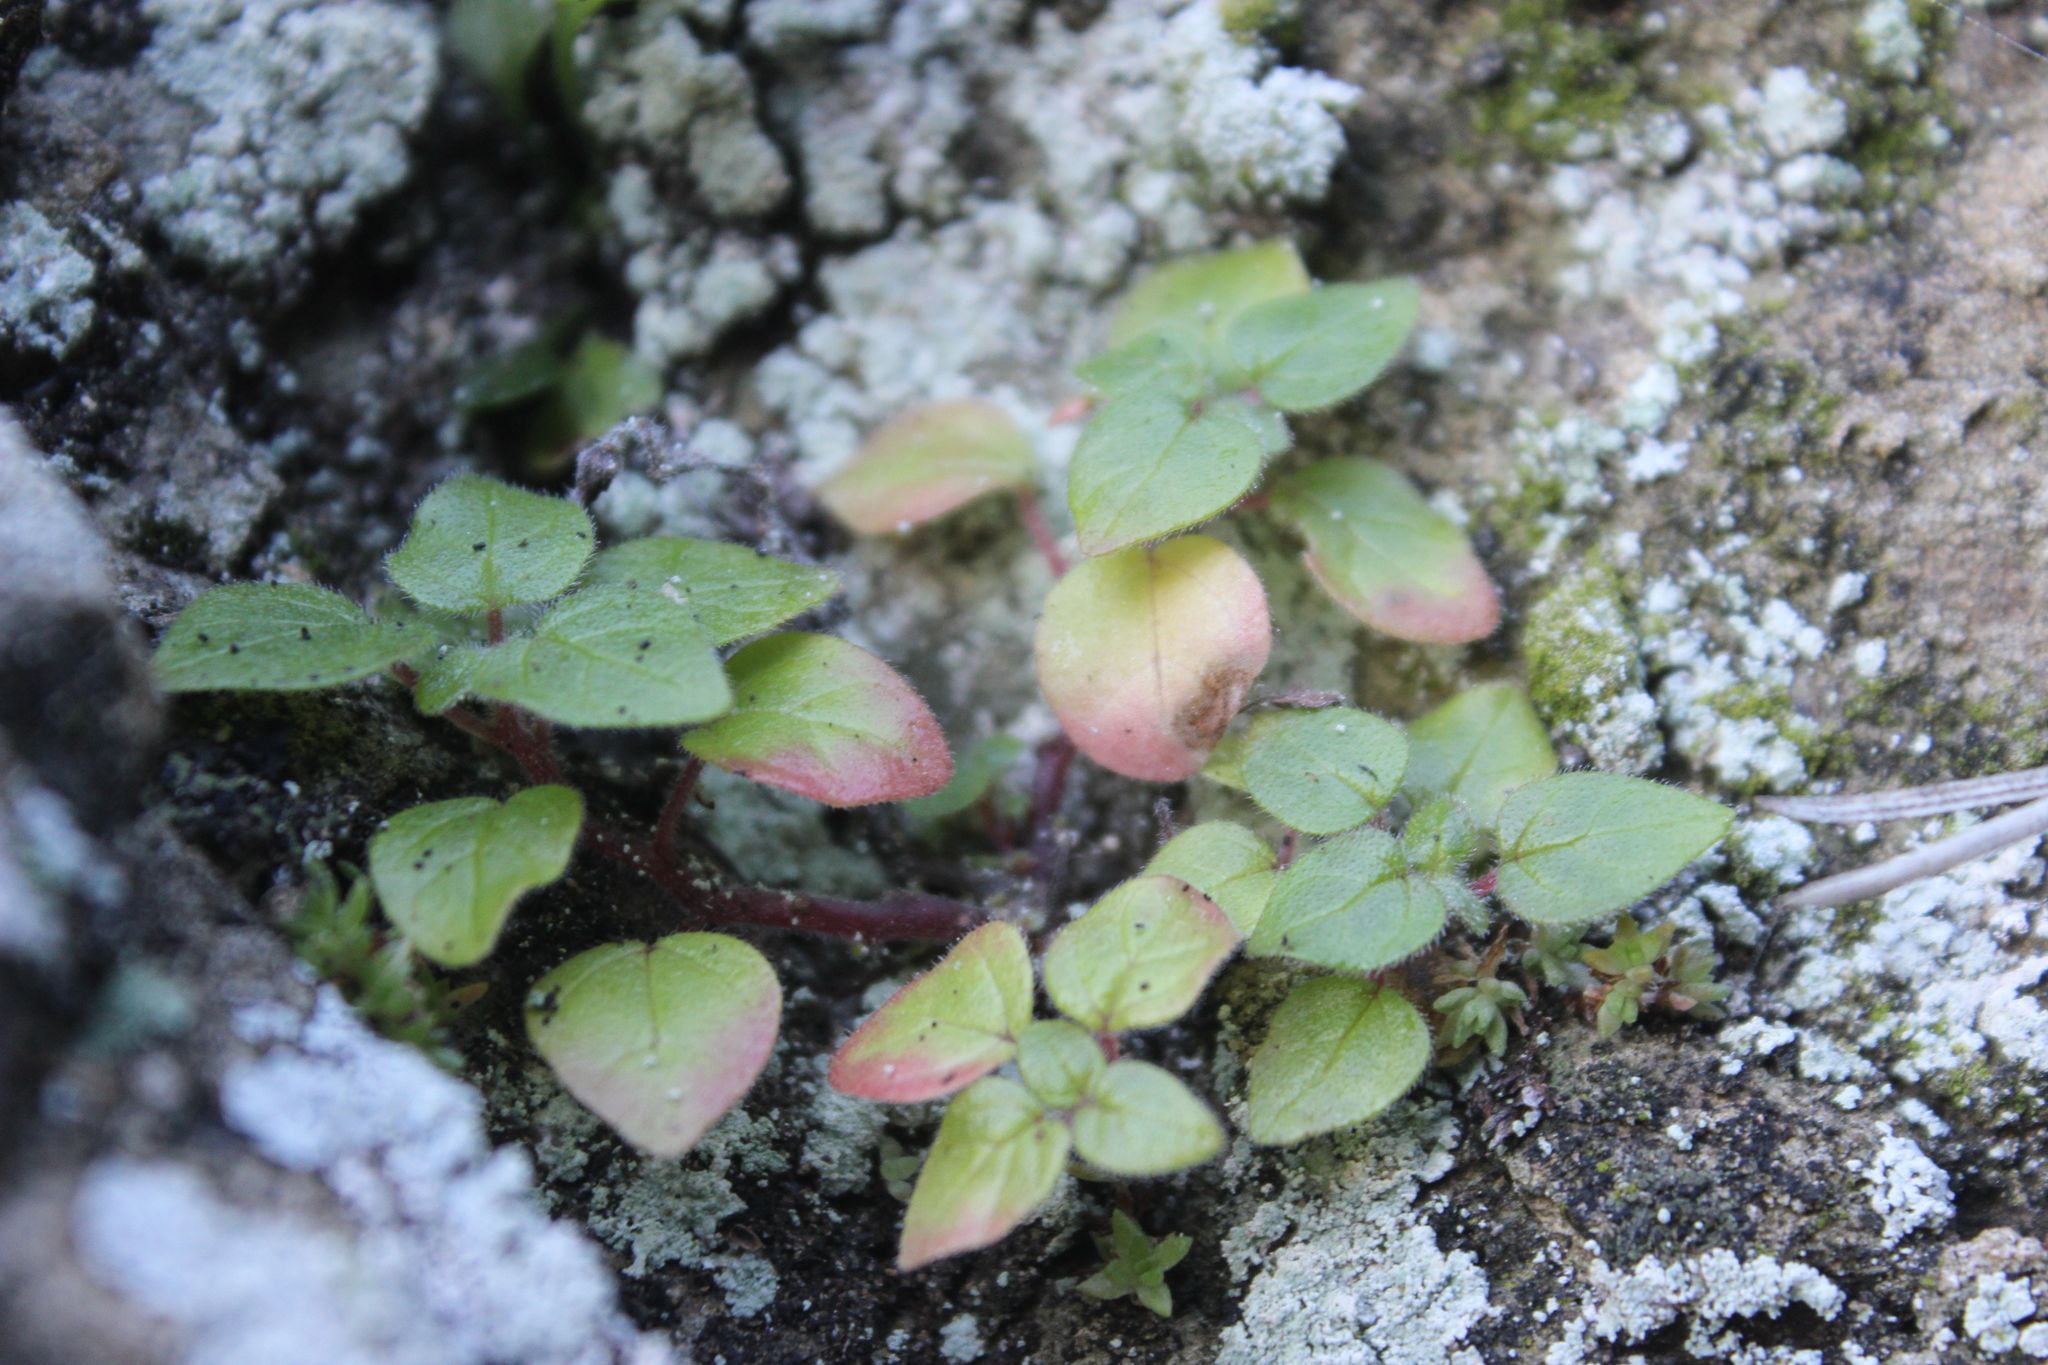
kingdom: Plantae
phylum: Tracheophyta
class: Magnoliopsida
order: Rosales
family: Urticaceae
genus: Parietaria
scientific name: Parietaria judaica
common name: Pellitory-of-the-wall
